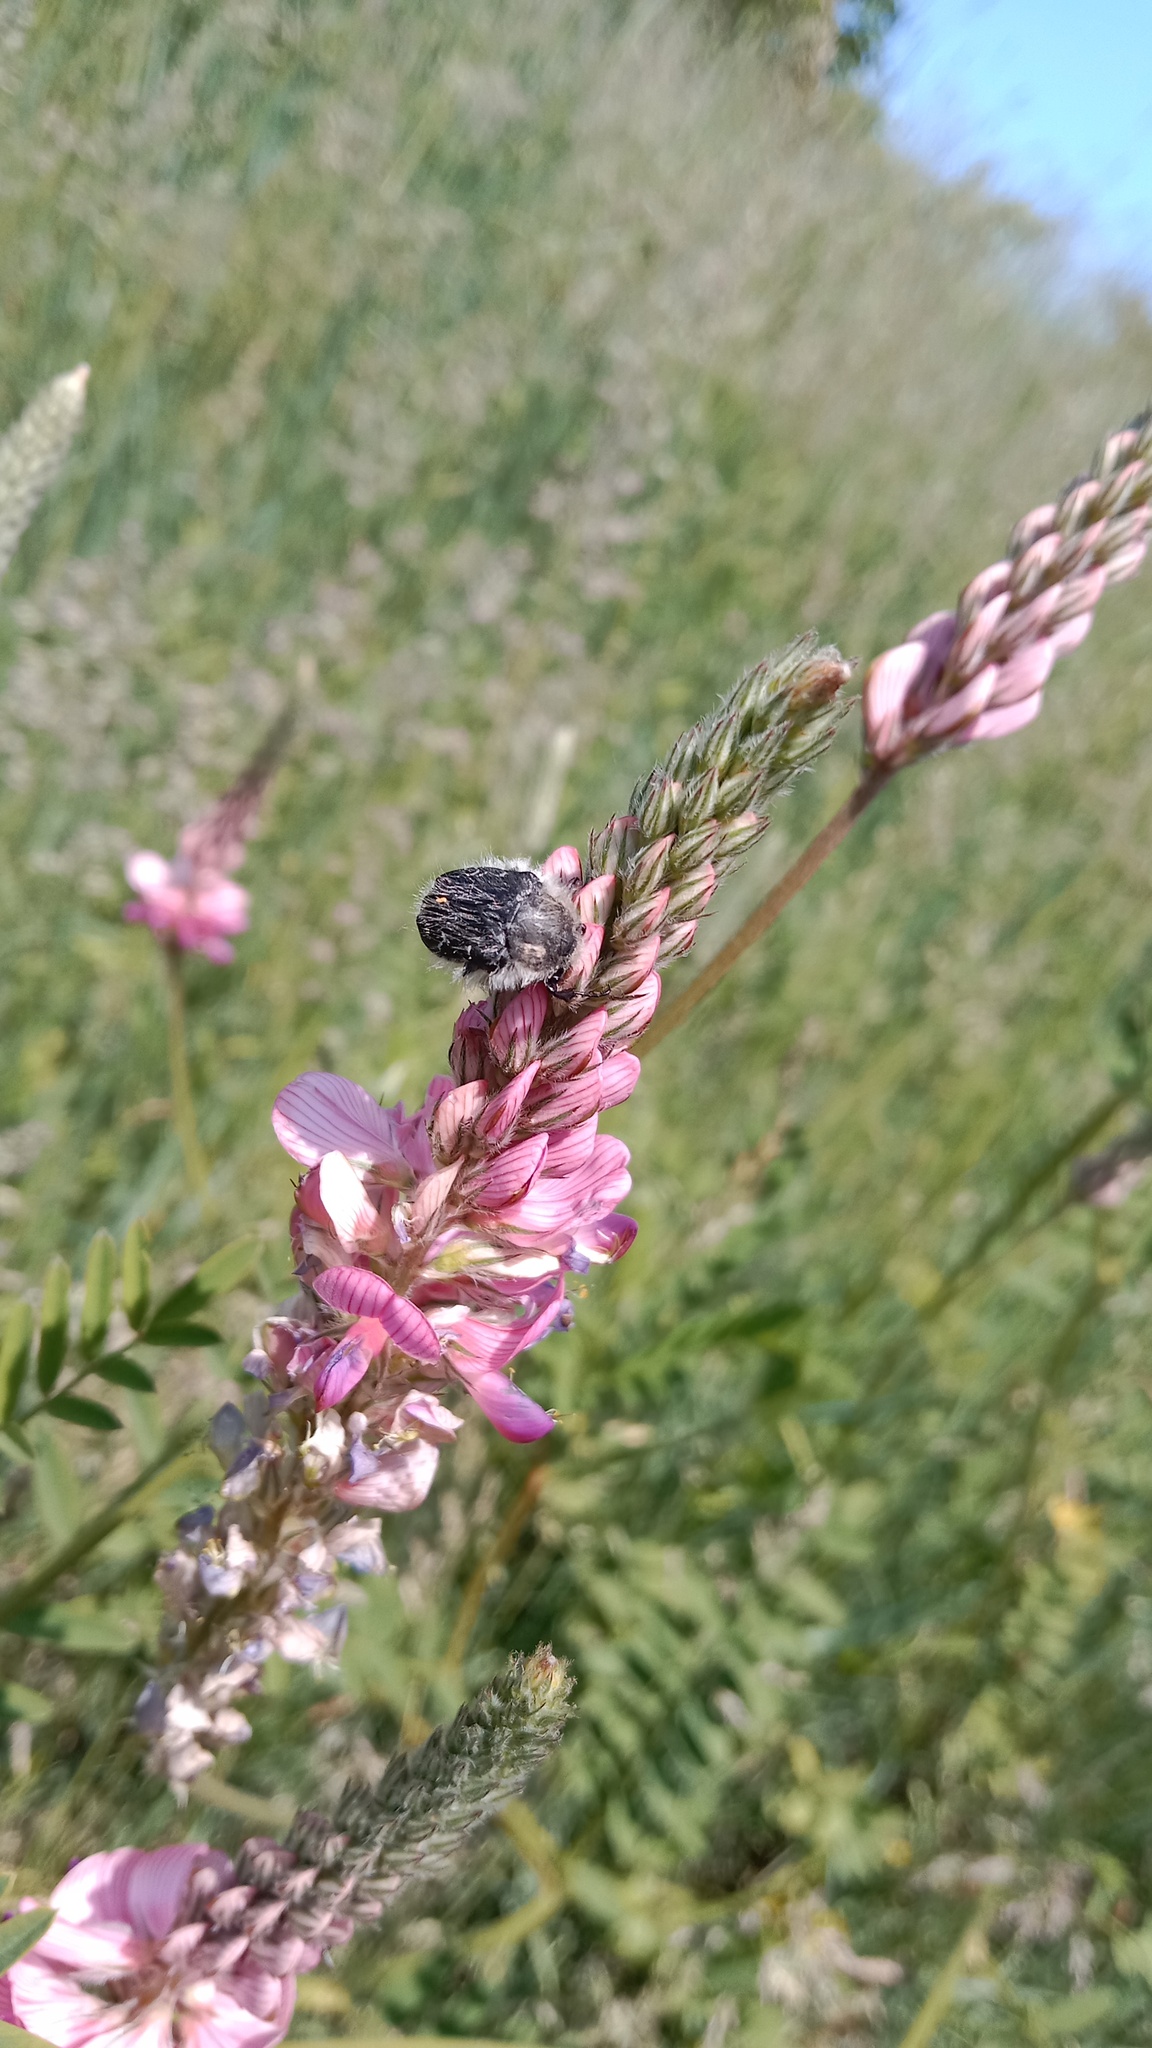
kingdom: Animalia
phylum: Arthropoda
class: Insecta
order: Coleoptera
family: Scarabaeidae
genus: Tropinota
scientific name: Tropinota hirta
